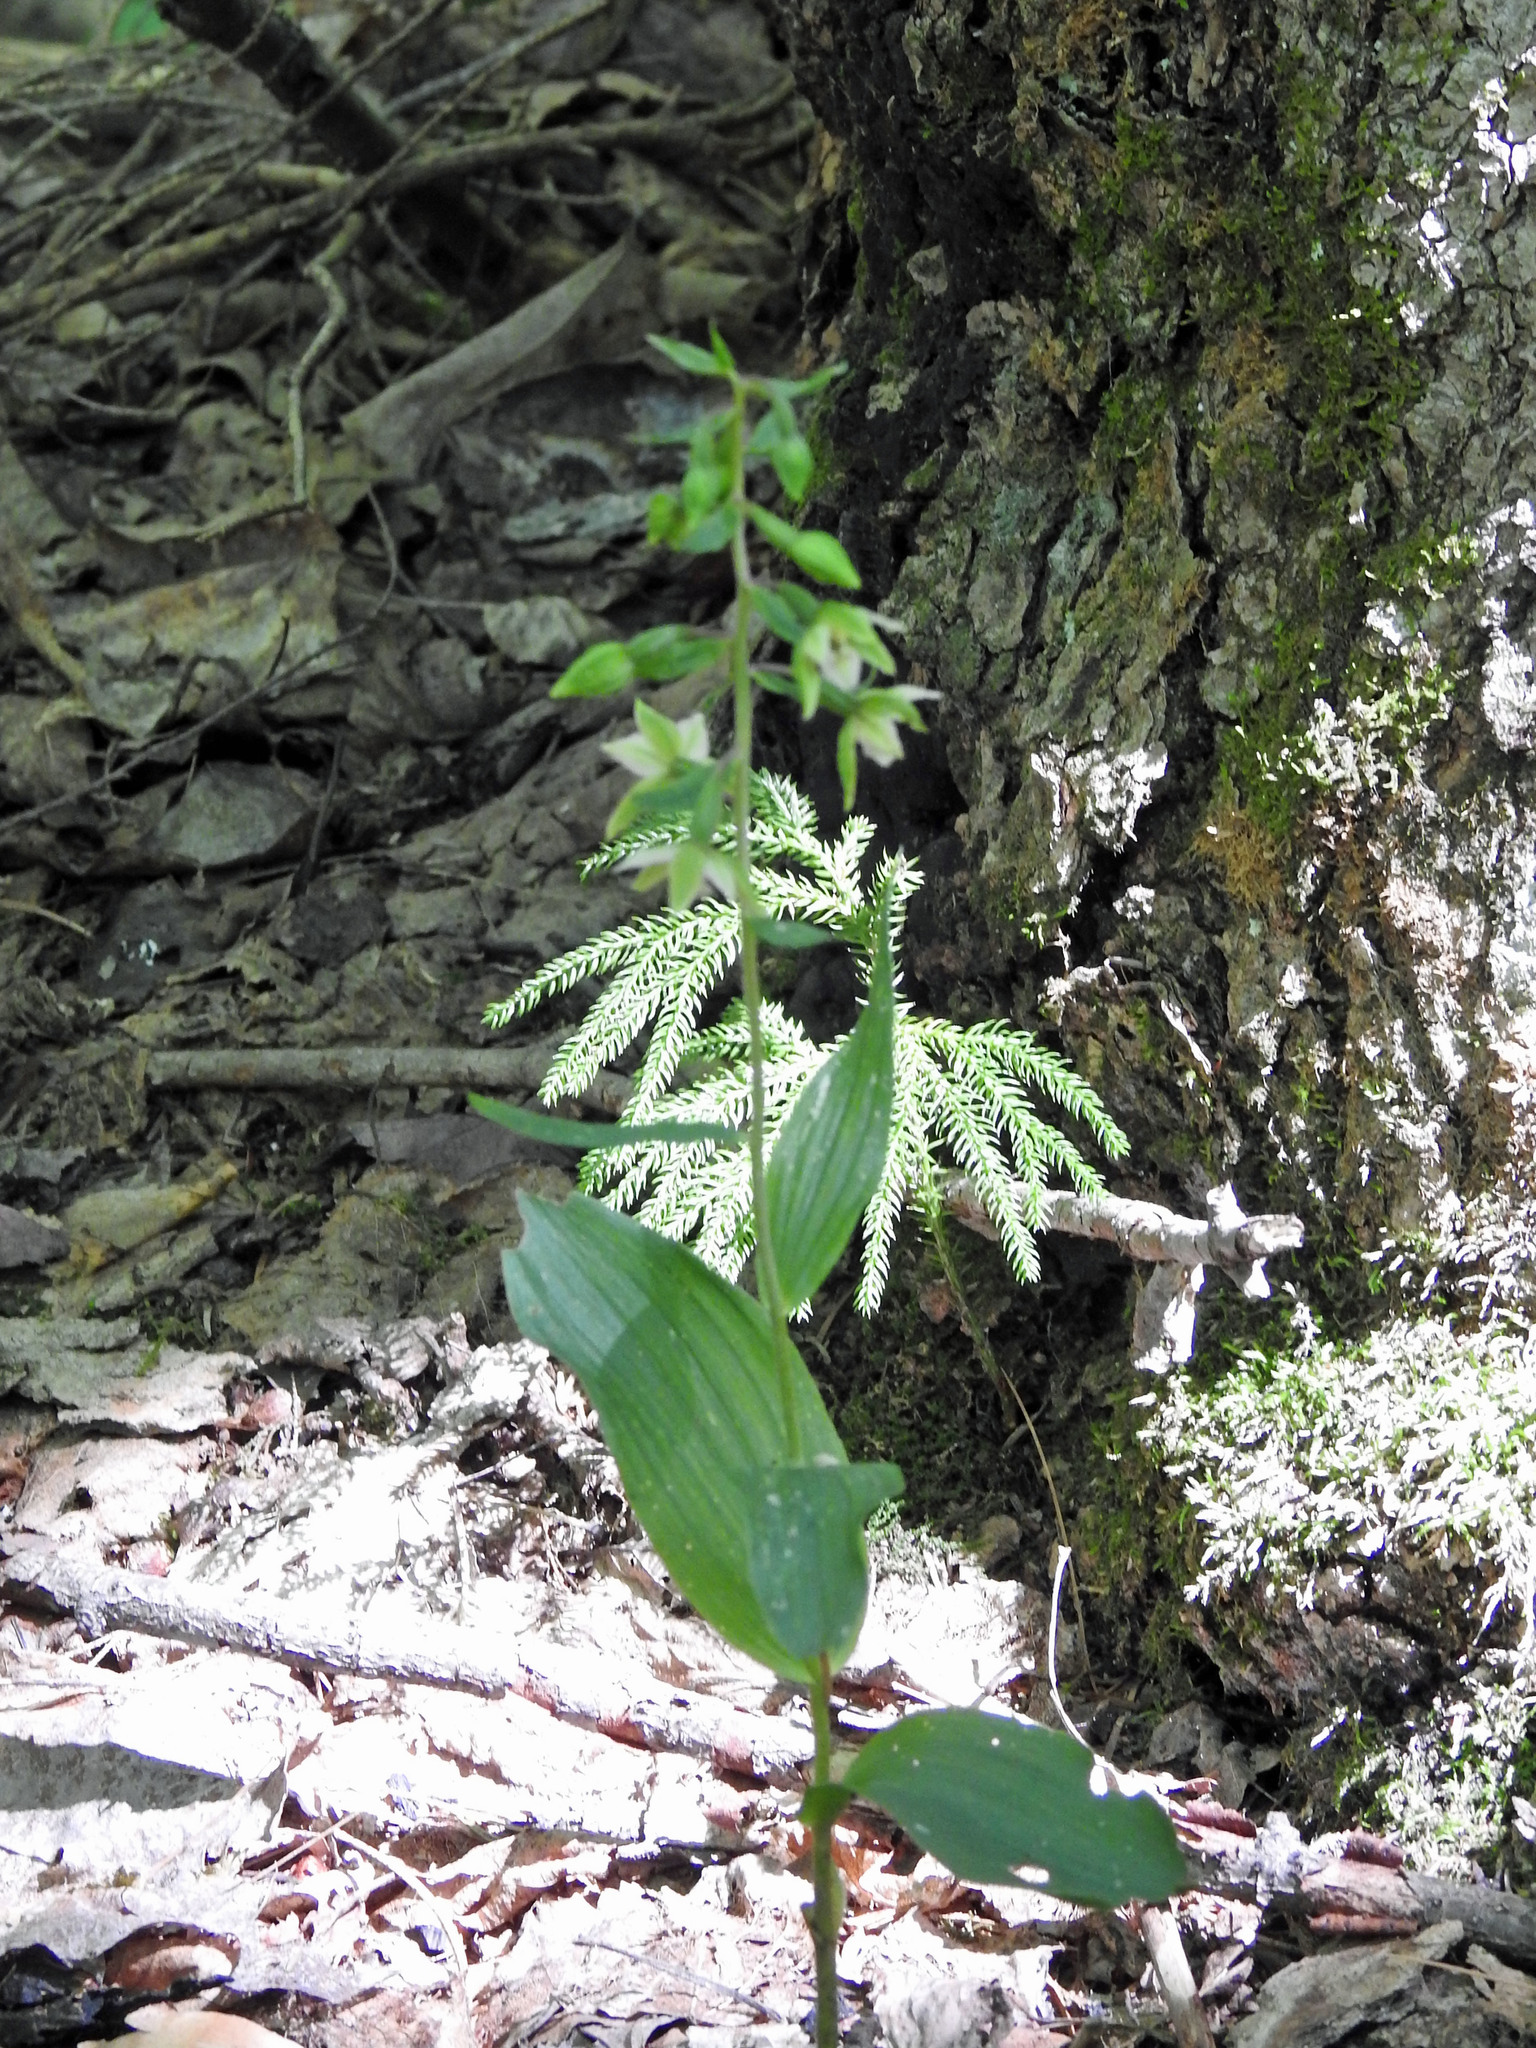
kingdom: Plantae
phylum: Tracheophyta
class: Liliopsida
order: Asparagales
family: Orchidaceae
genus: Epipactis
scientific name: Epipactis helleborine
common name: Broad-leaved helleborine
